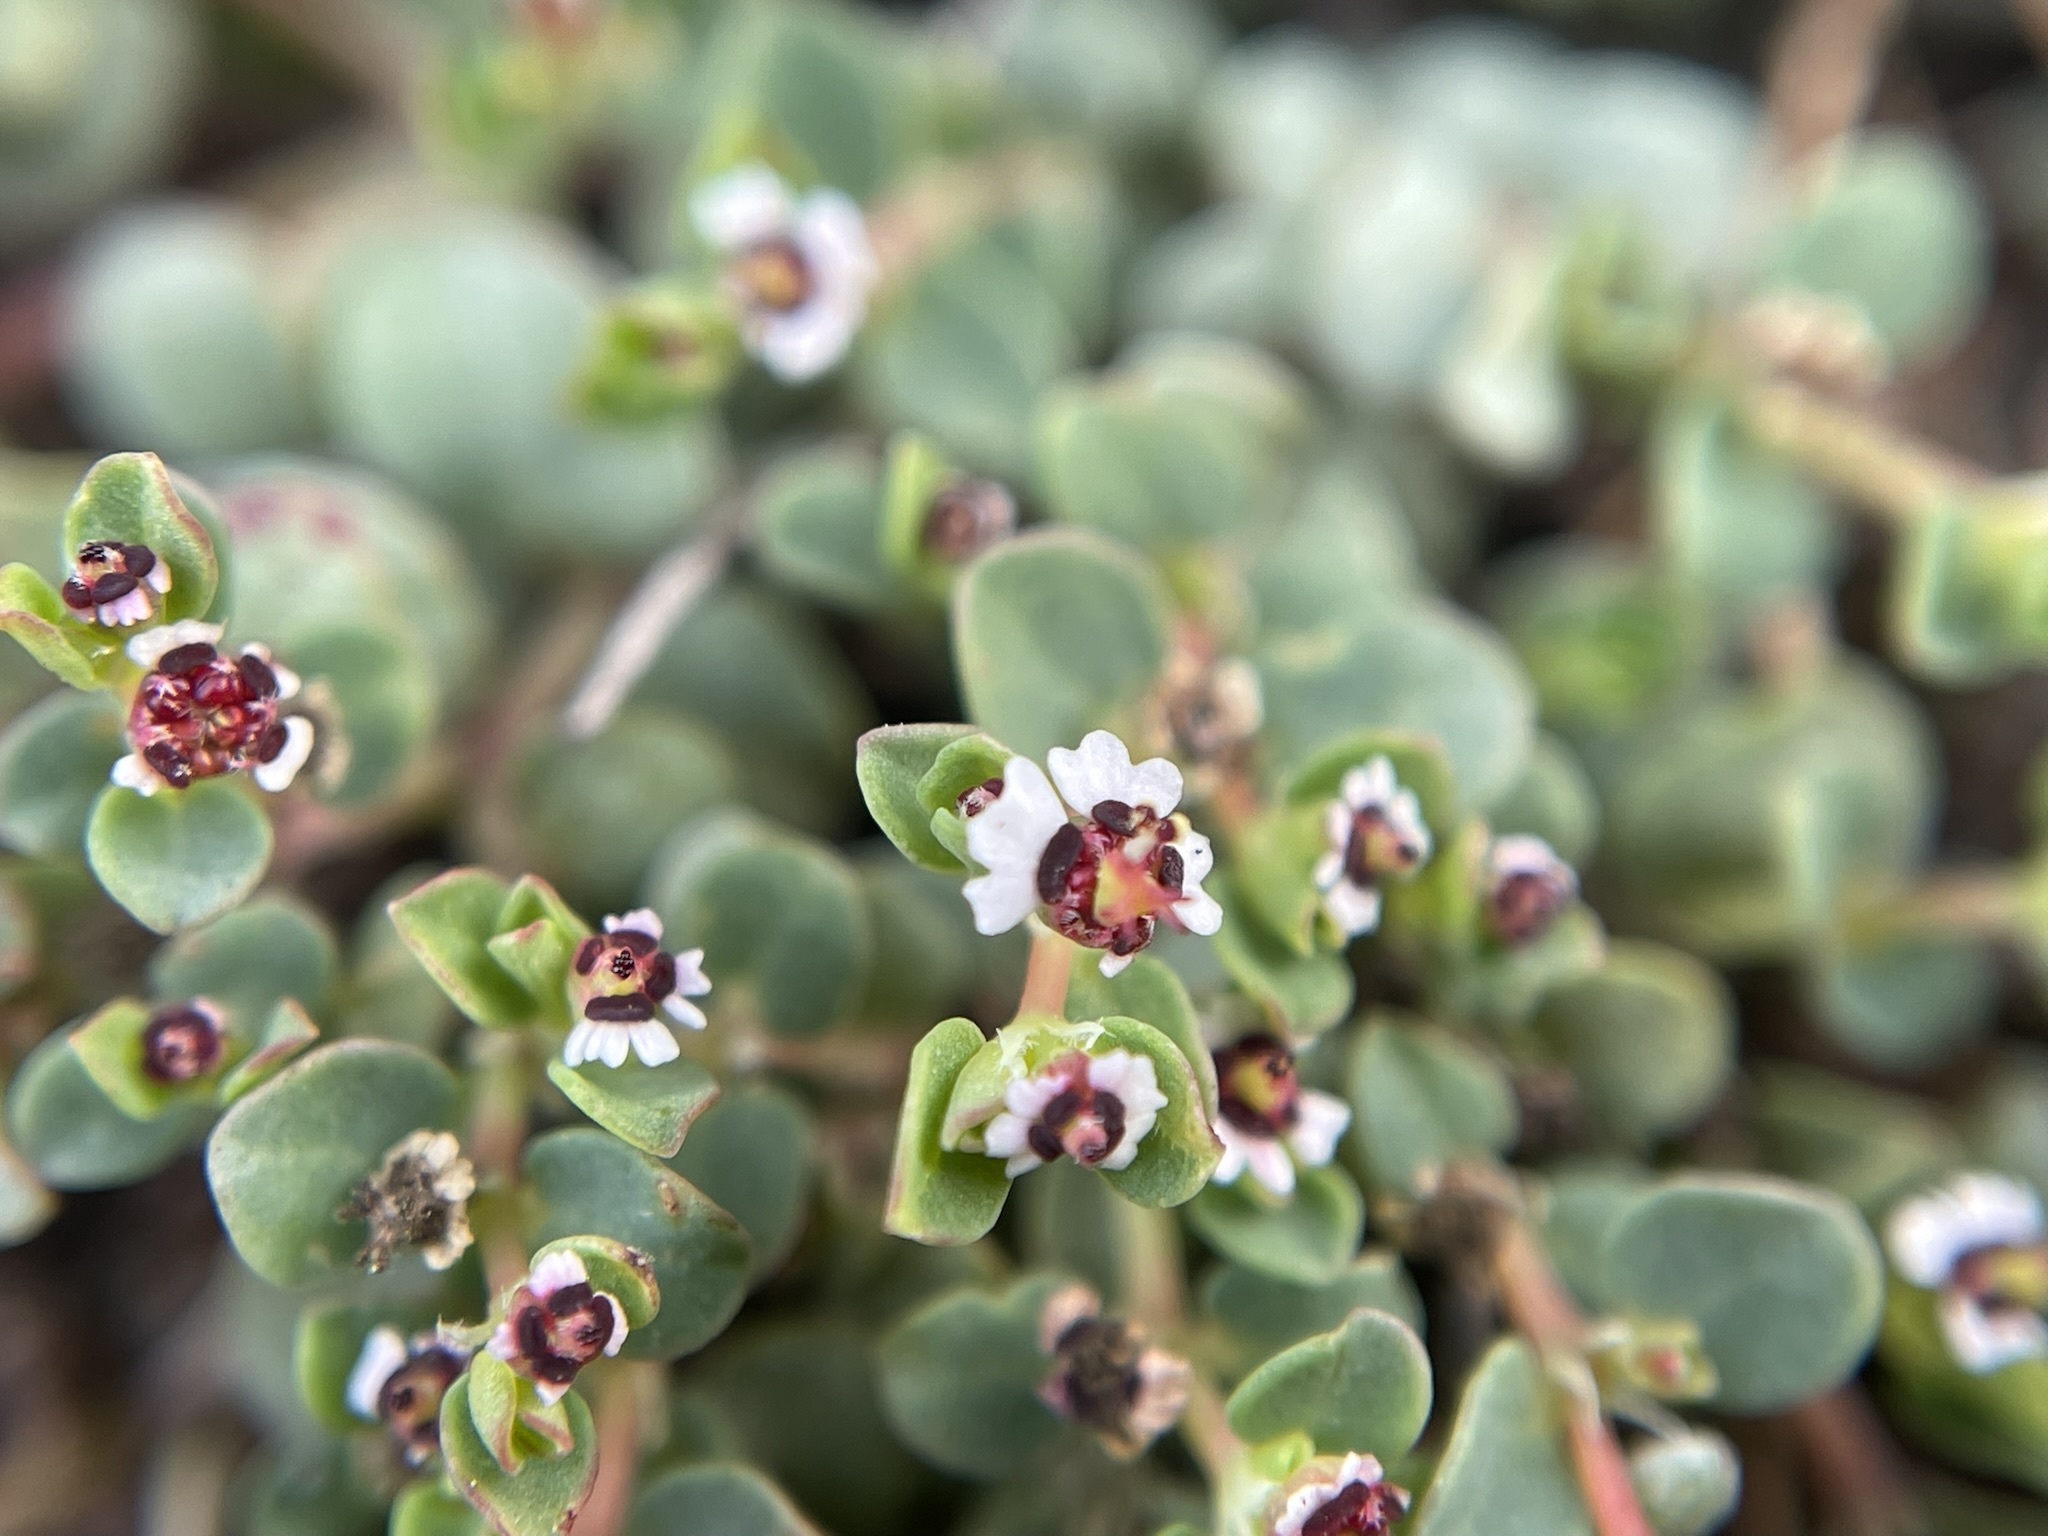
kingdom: Plantae
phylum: Tracheophyta
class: Magnoliopsida
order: Malpighiales
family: Euphorbiaceae
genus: Euphorbia
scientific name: Euphorbia polycarpa
